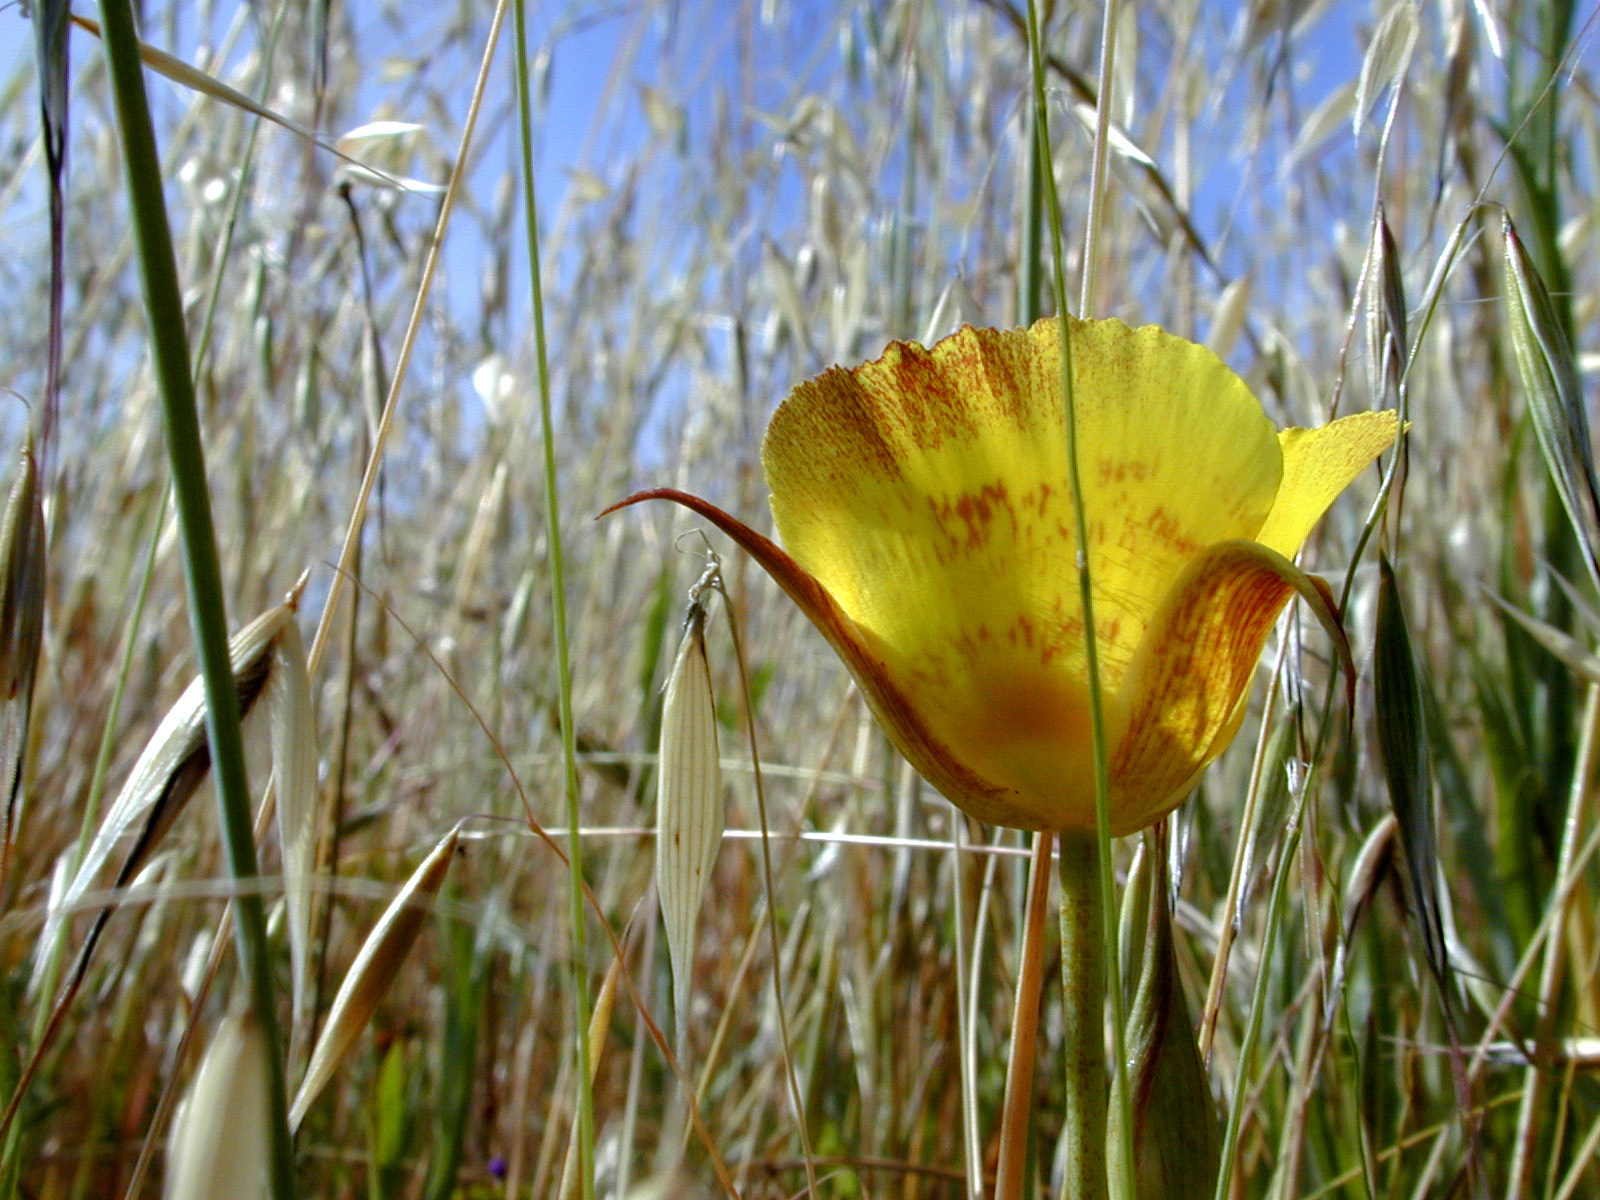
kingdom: Plantae
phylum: Tracheophyta
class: Liliopsida
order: Liliales
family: Liliaceae
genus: Calochortus
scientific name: Calochortus luteus
